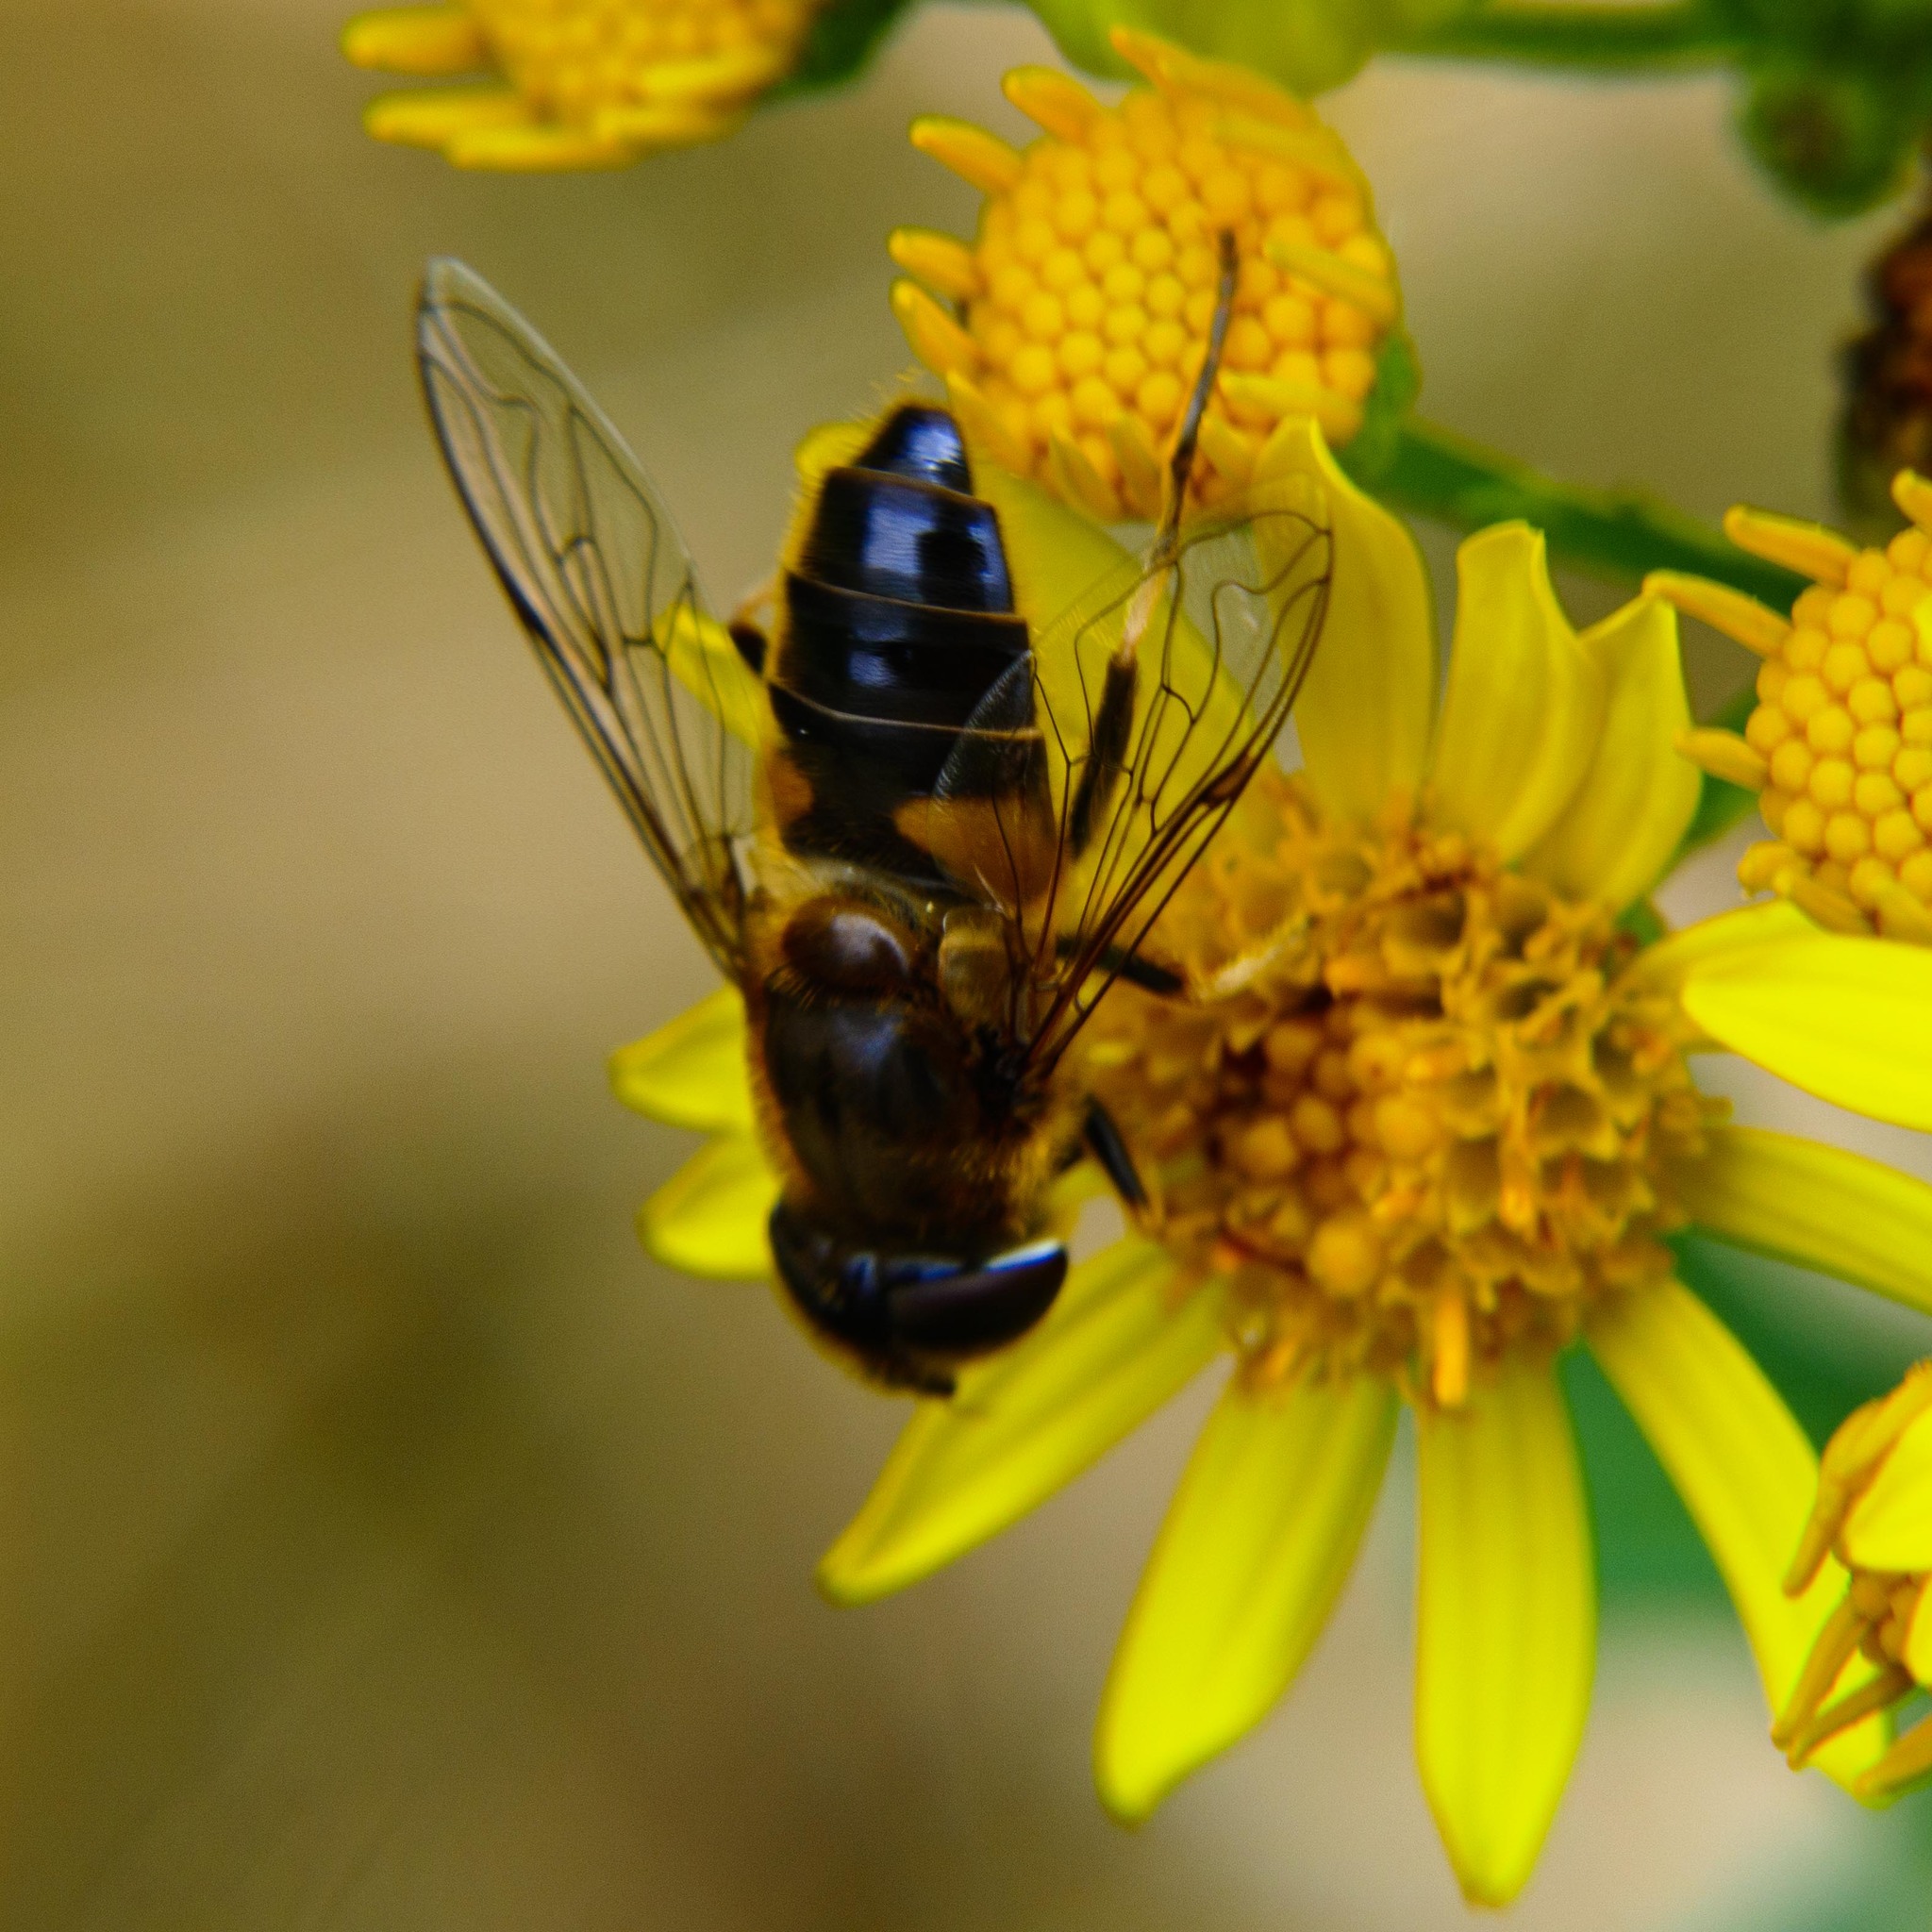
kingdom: Animalia
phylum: Arthropoda
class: Insecta
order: Diptera
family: Syrphidae
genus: Eristalis
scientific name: Eristalis pertinax
